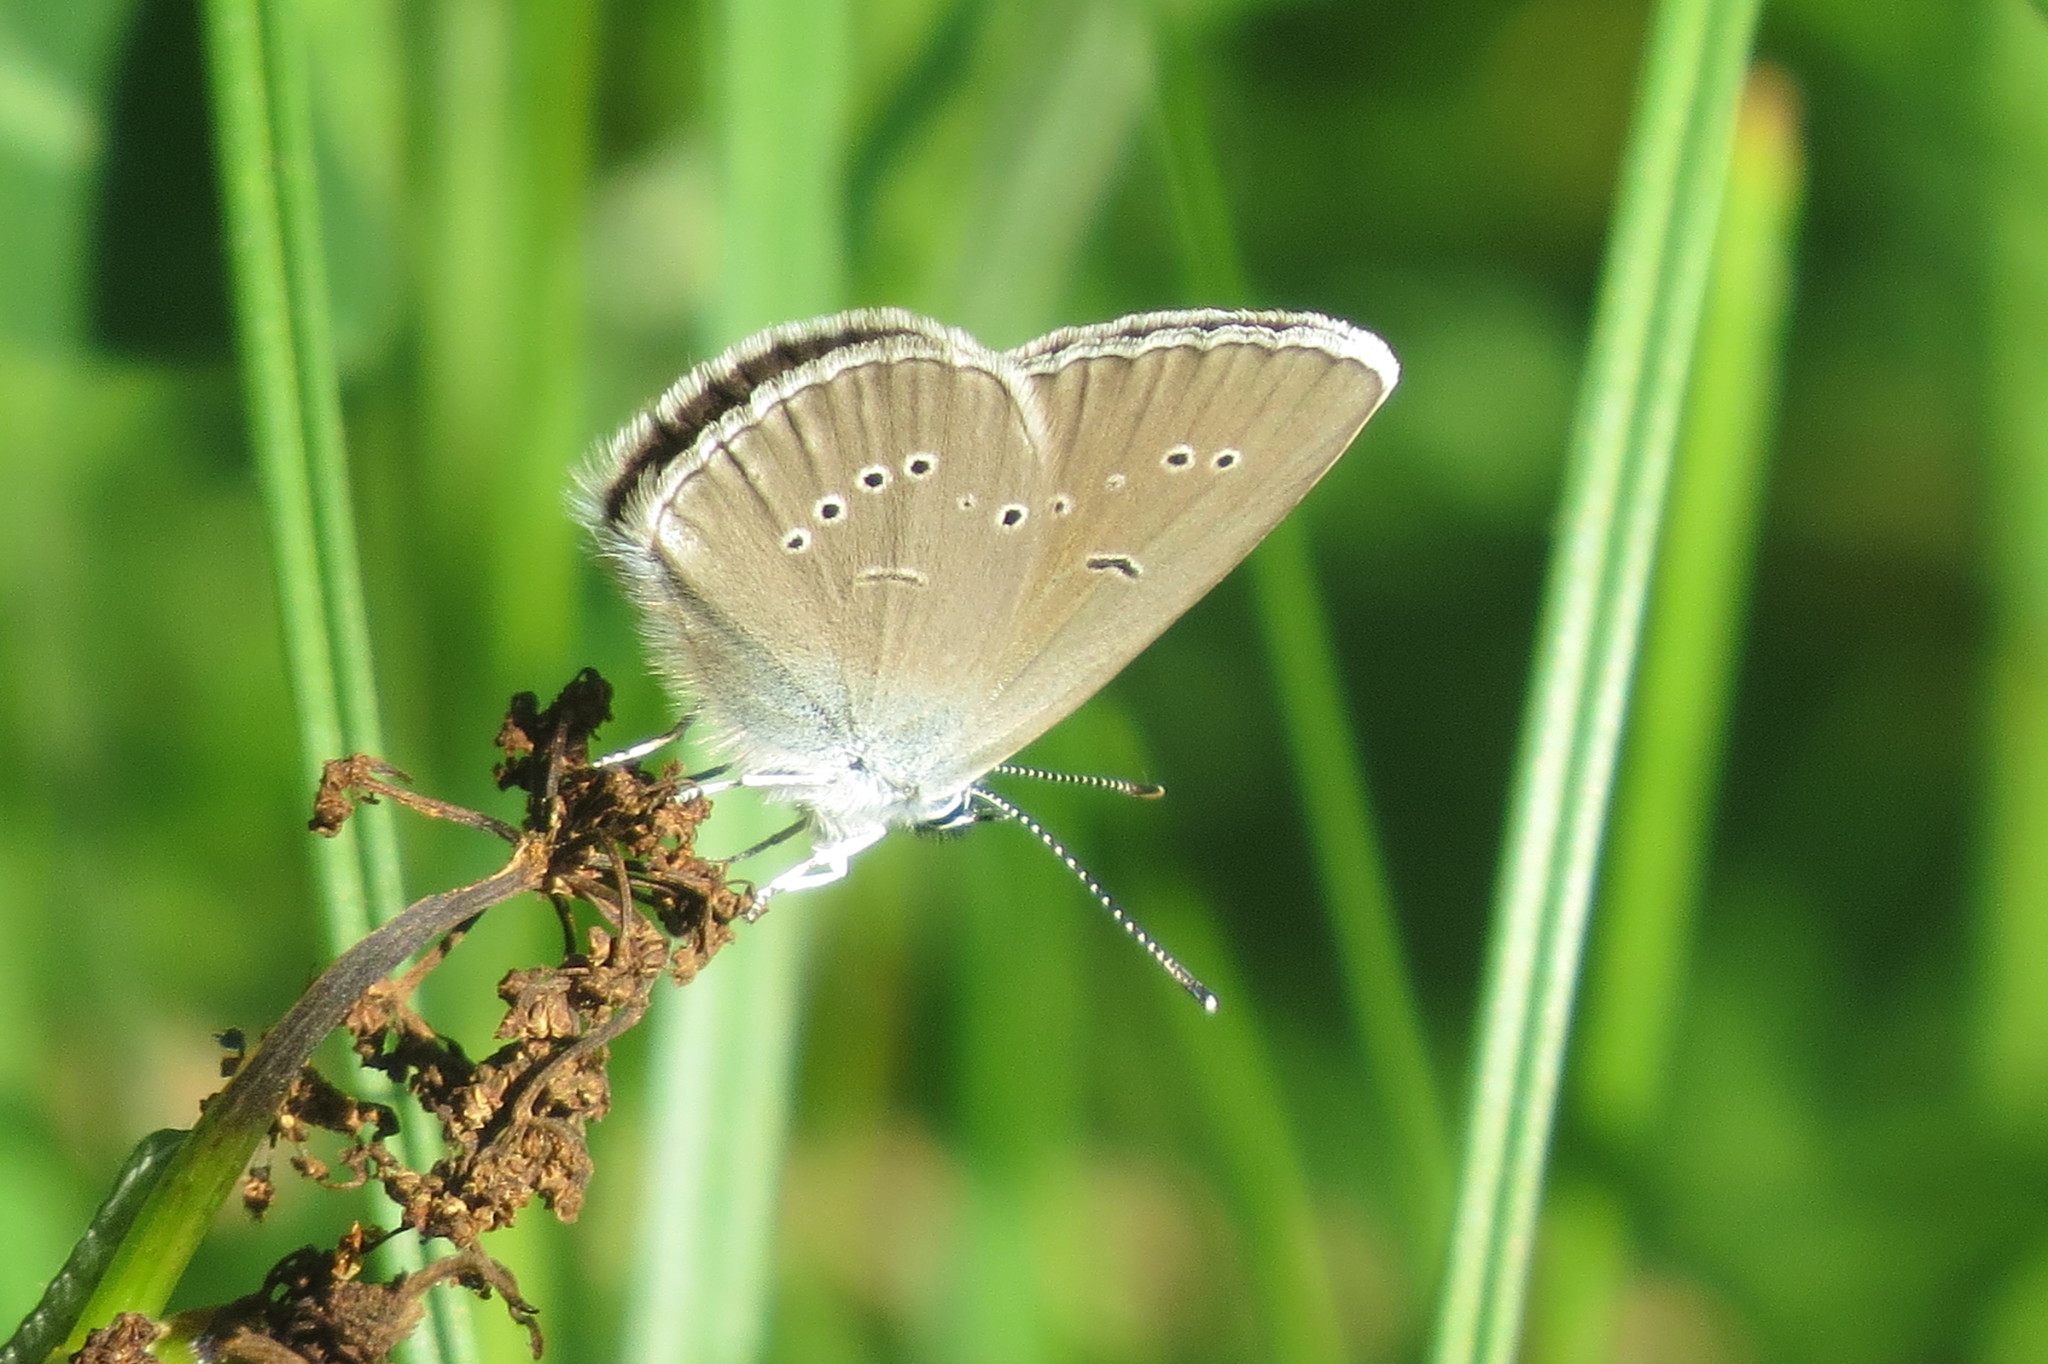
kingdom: Animalia
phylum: Arthropoda
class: Insecta
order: Lepidoptera
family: Lycaenidae
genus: Cyaniris
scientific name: Cyaniris semiargus
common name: Mazarine blue
